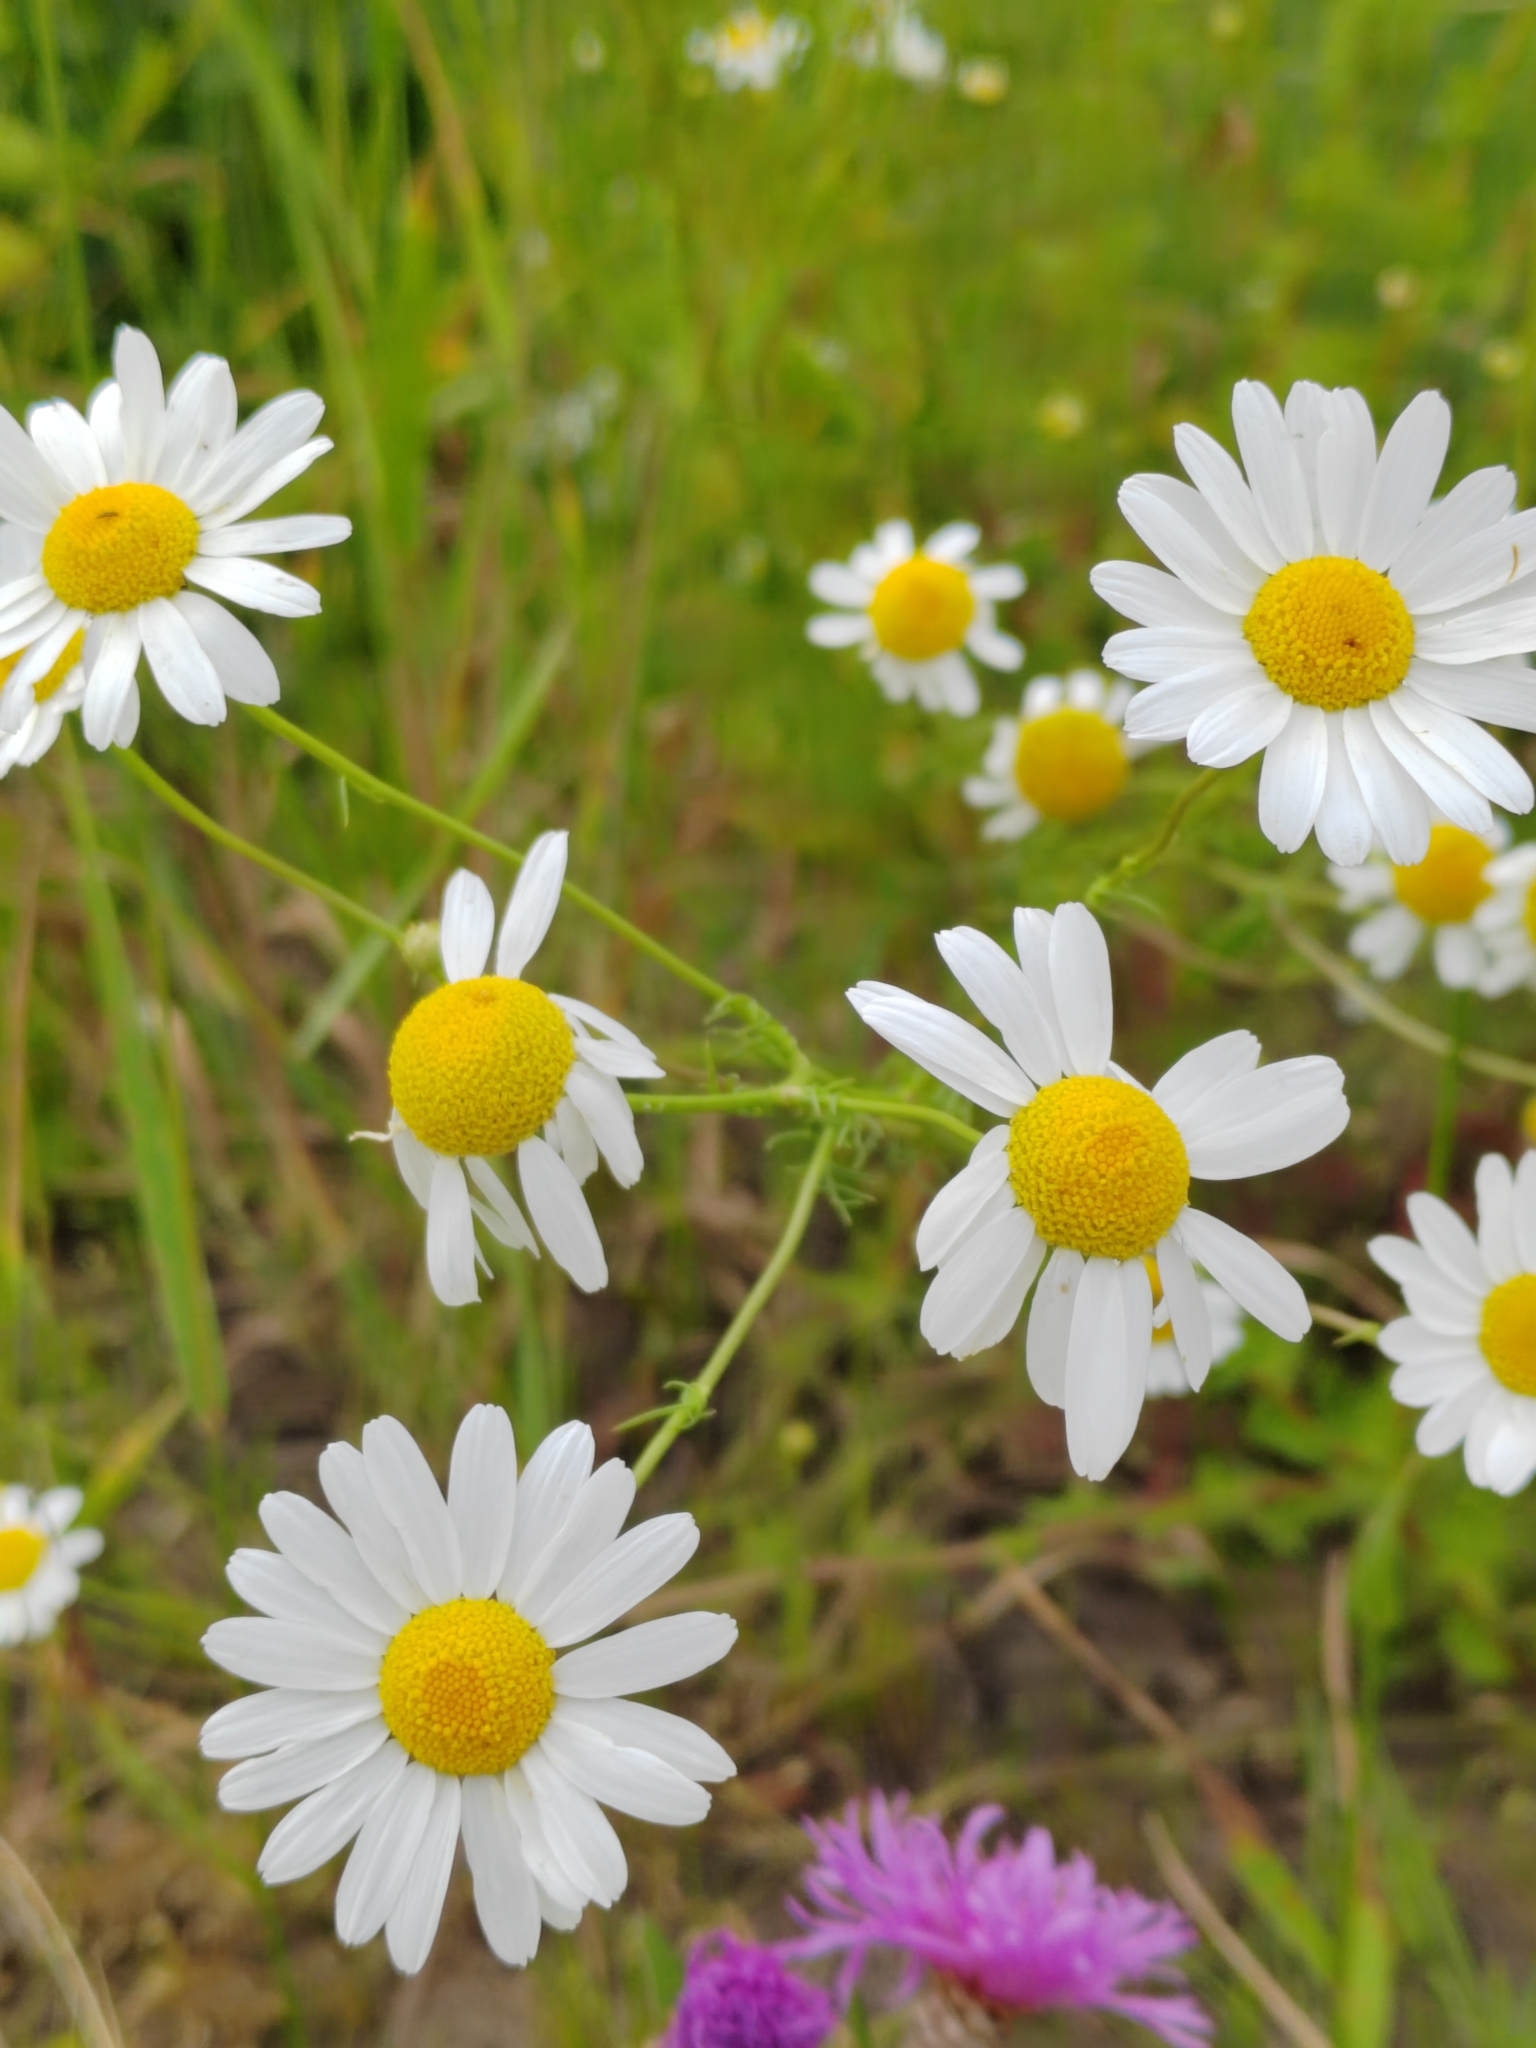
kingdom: Plantae
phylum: Tracheophyta
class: Magnoliopsida
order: Asterales
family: Asteraceae
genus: Tripleurospermum
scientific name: Tripleurospermum inodorum
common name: Scentless mayweed
